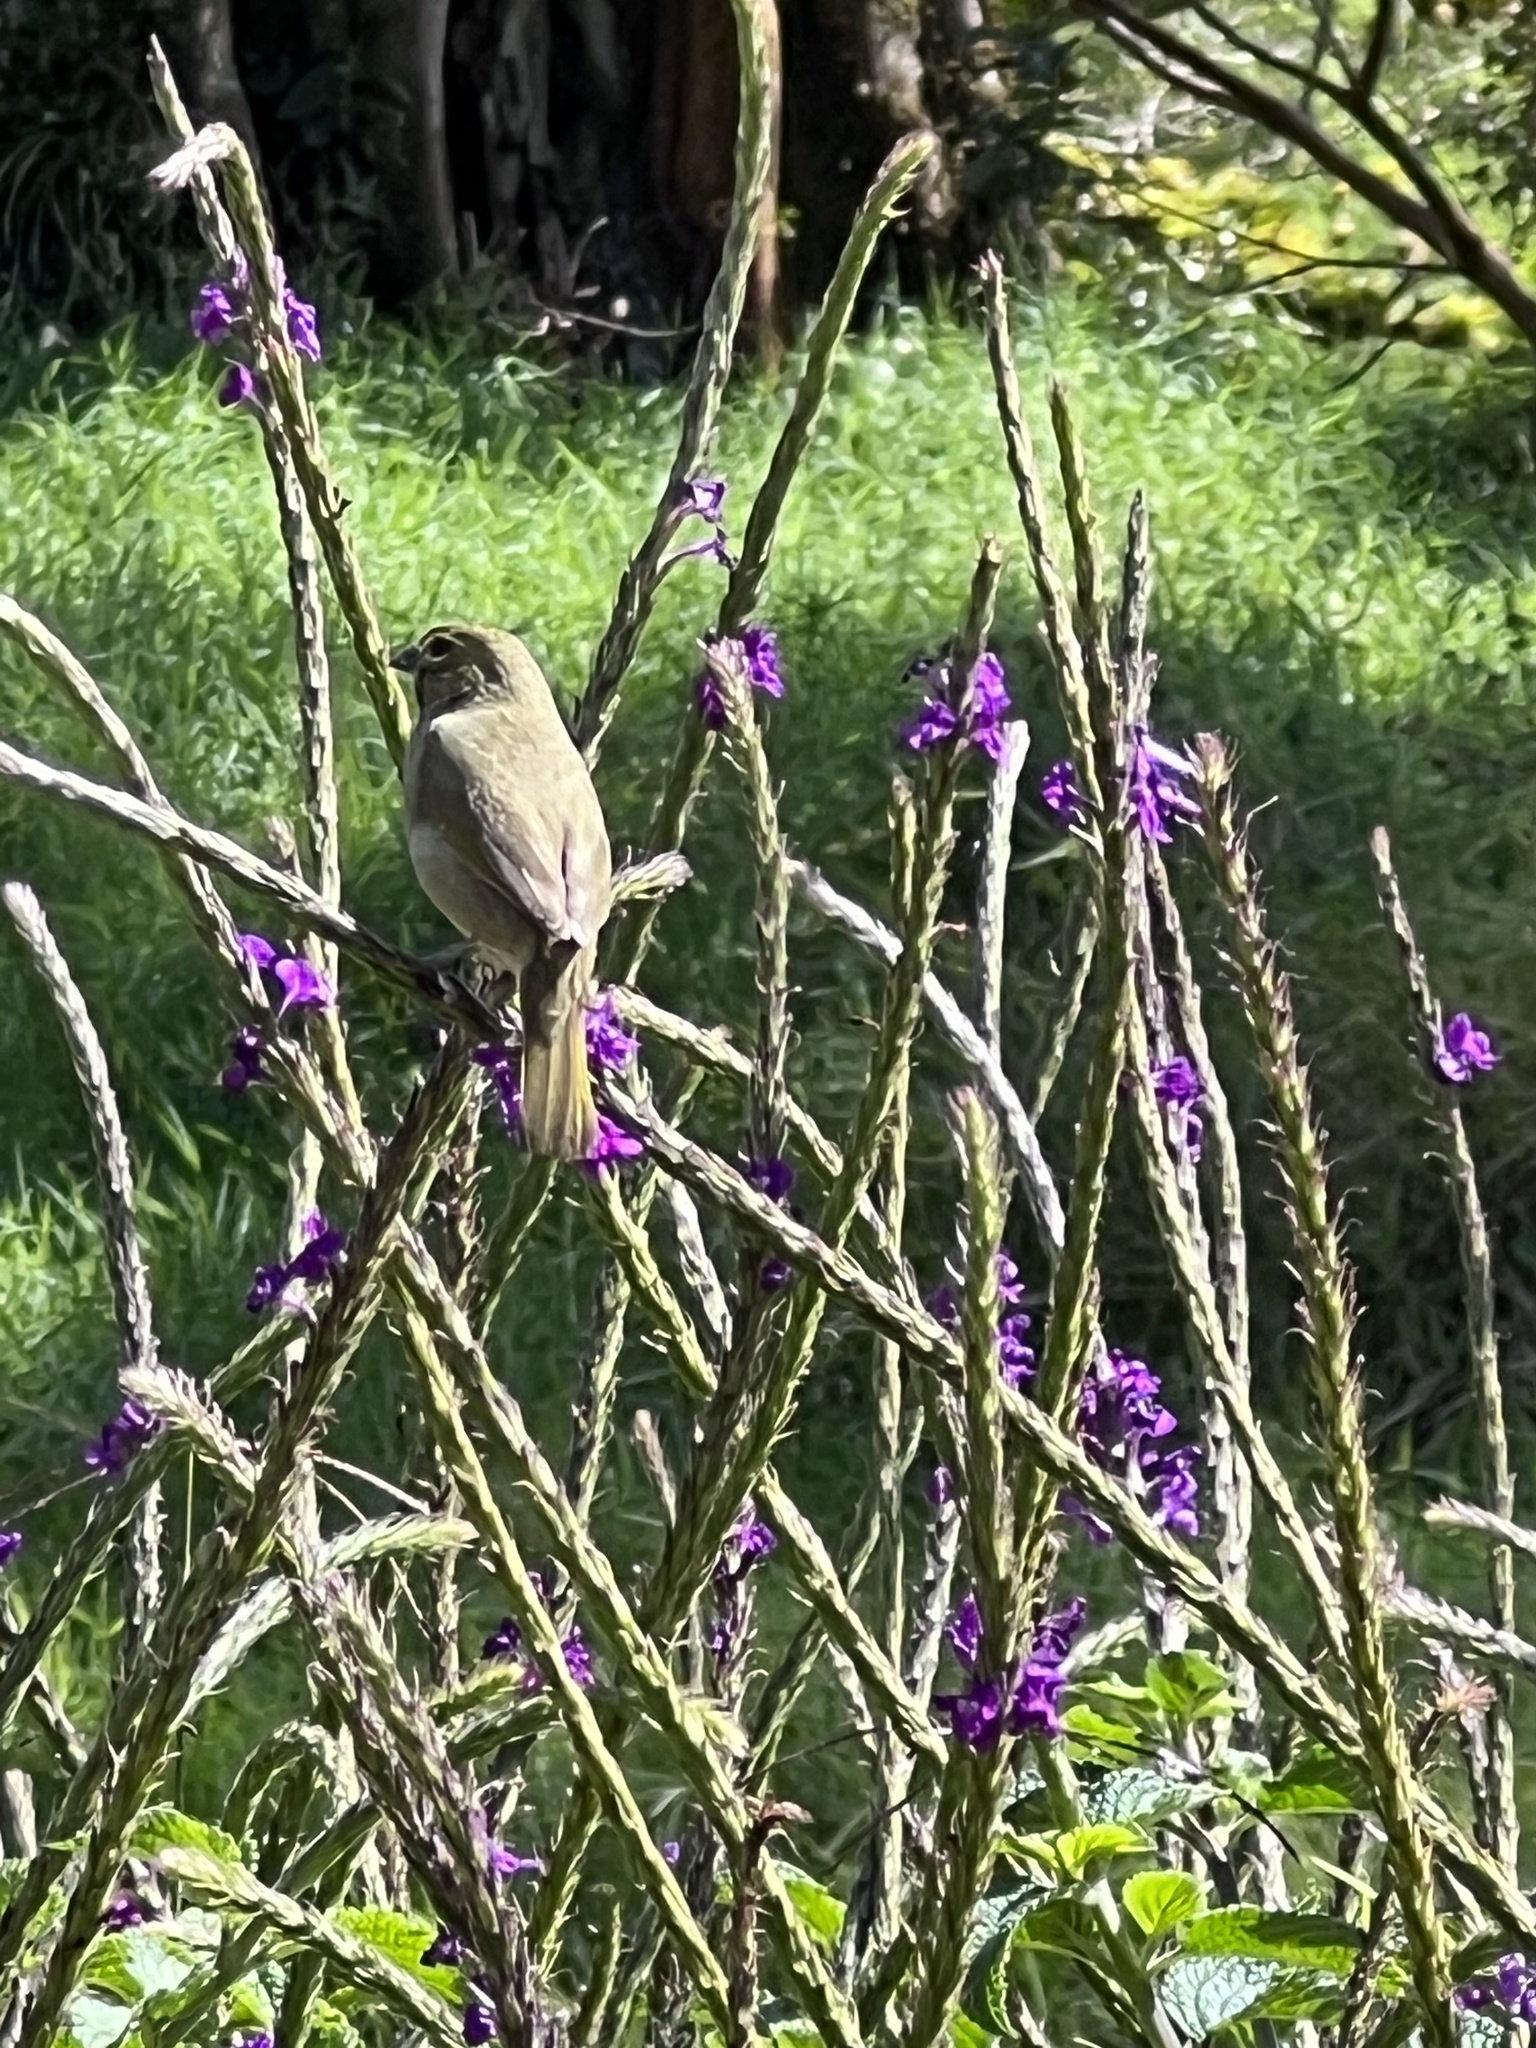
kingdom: Animalia
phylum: Chordata
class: Aves
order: Passeriformes
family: Thraupidae
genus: Tiaris
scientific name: Tiaris olivaceus
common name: Yellow-faced grassquit
